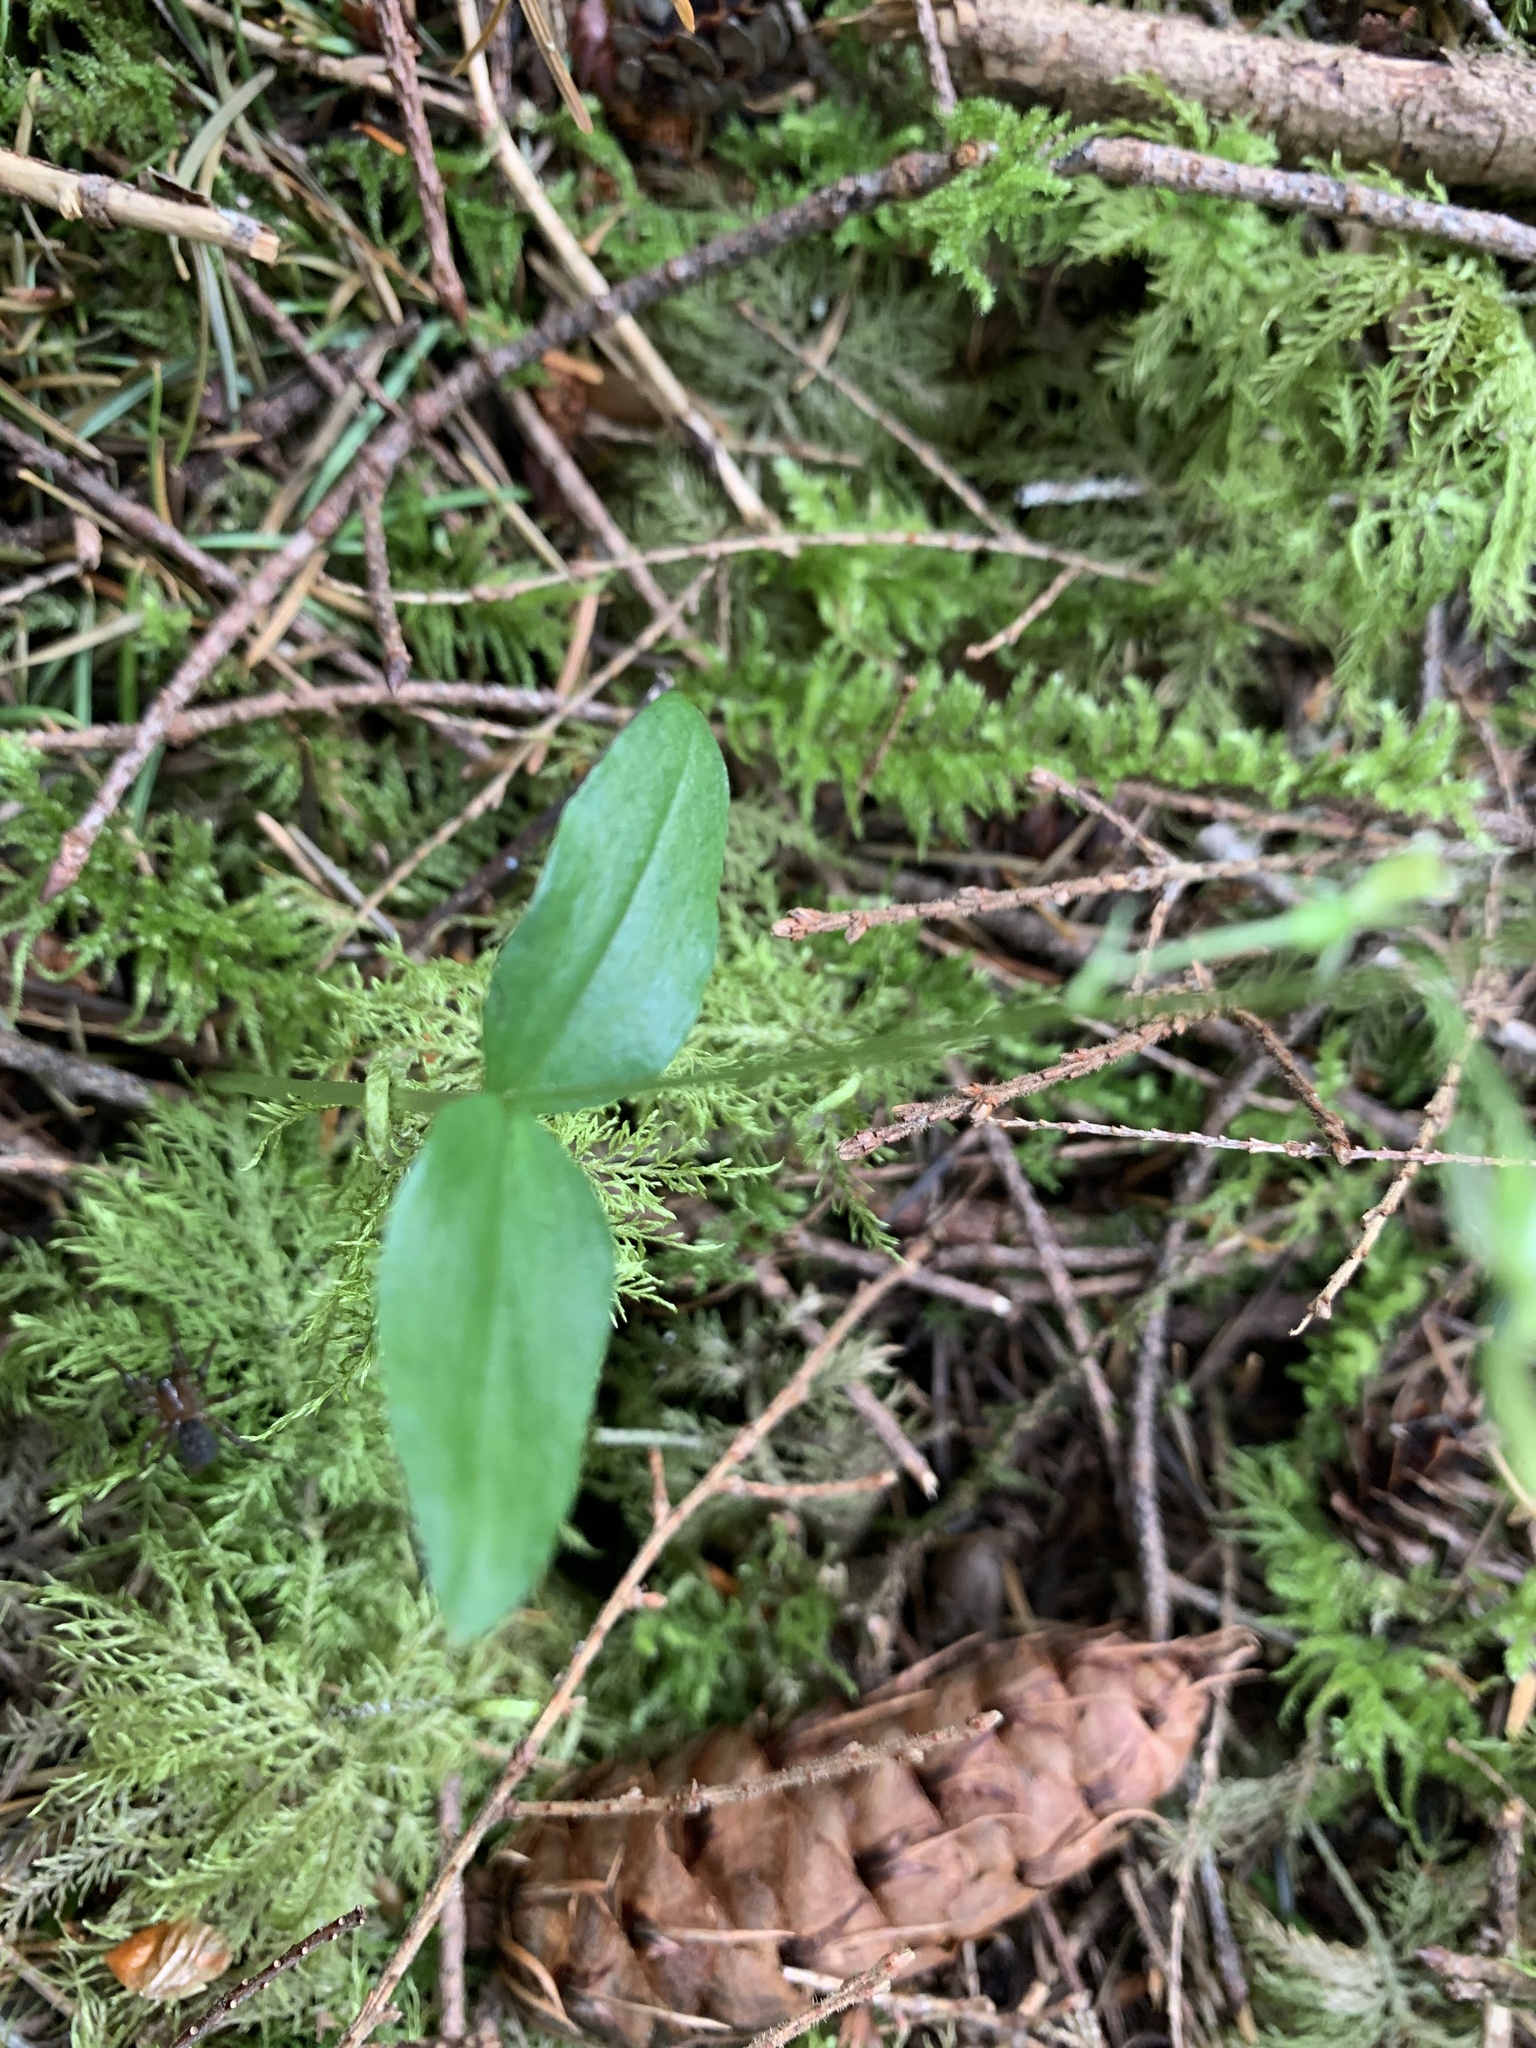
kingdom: Plantae
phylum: Tracheophyta
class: Liliopsida
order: Asparagales
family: Orchidaceae
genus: Neottia
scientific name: Neottia banksiana
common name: Northwestern twayblade
